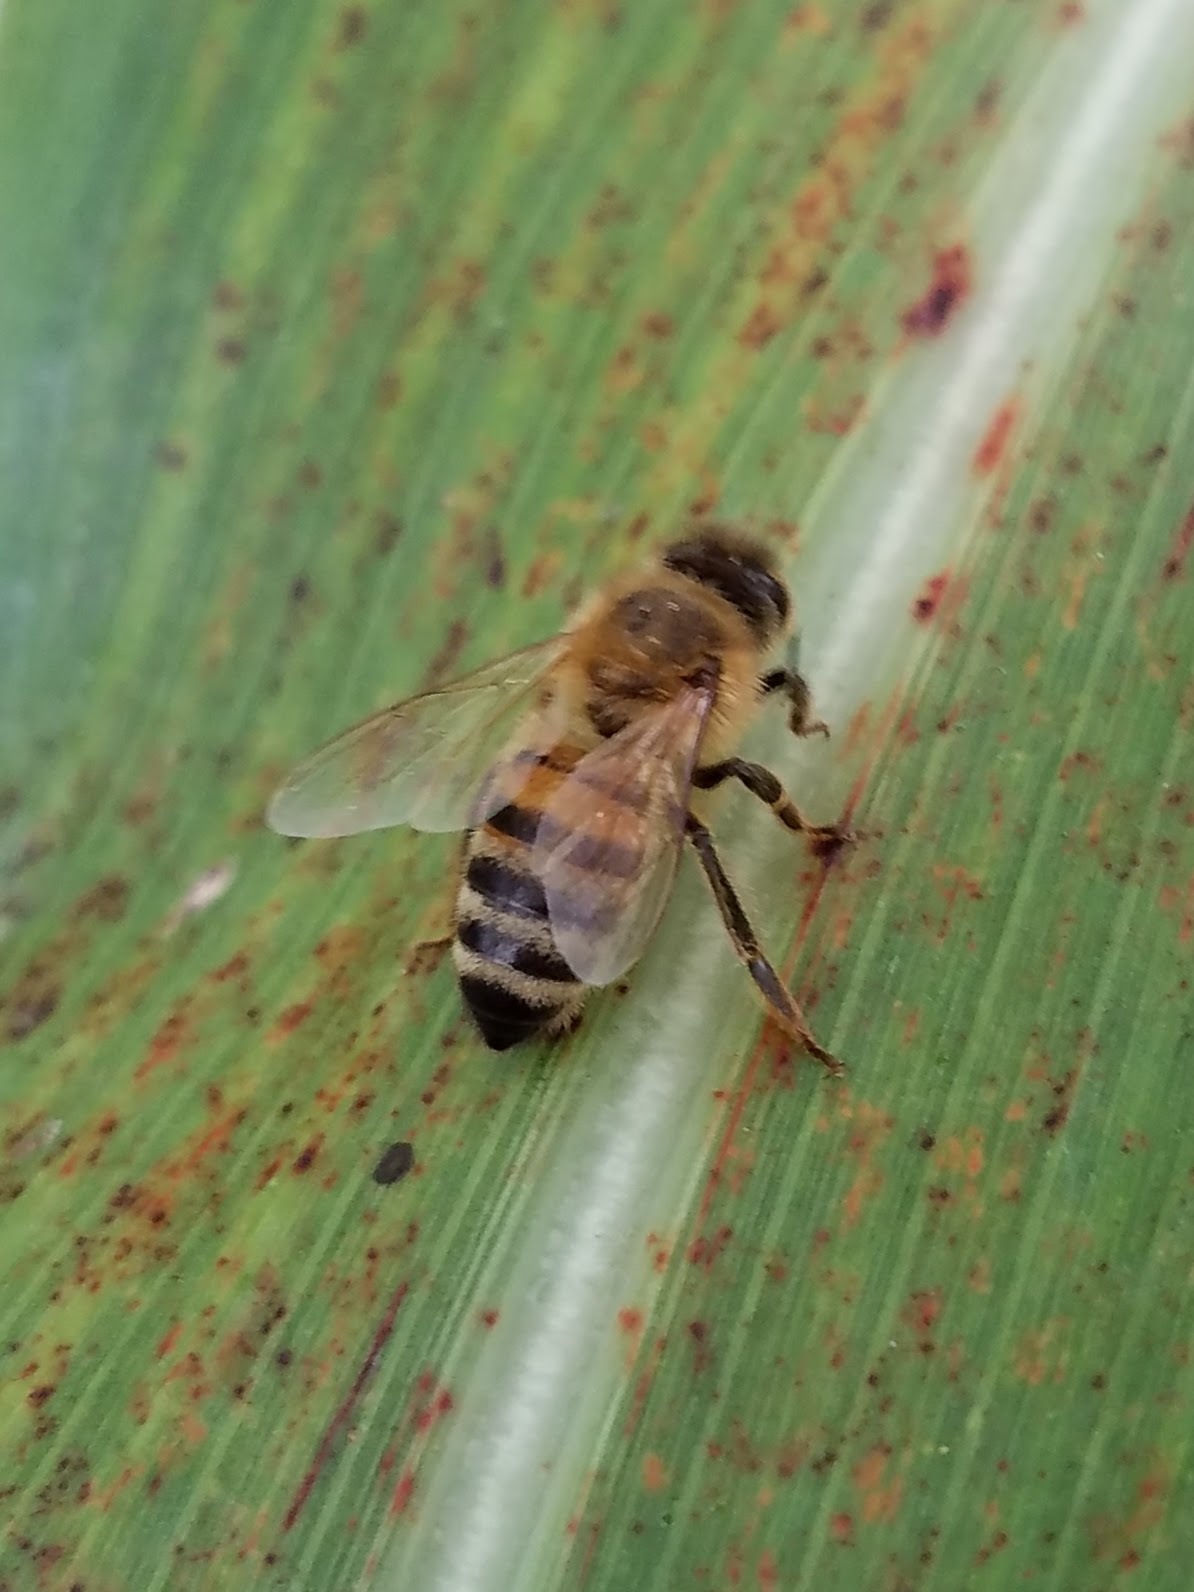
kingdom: Animalia
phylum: Arthropoda
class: Insecta
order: Hymenoptera
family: Apidae
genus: Apis
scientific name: Apis mellifera
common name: Honey bee
